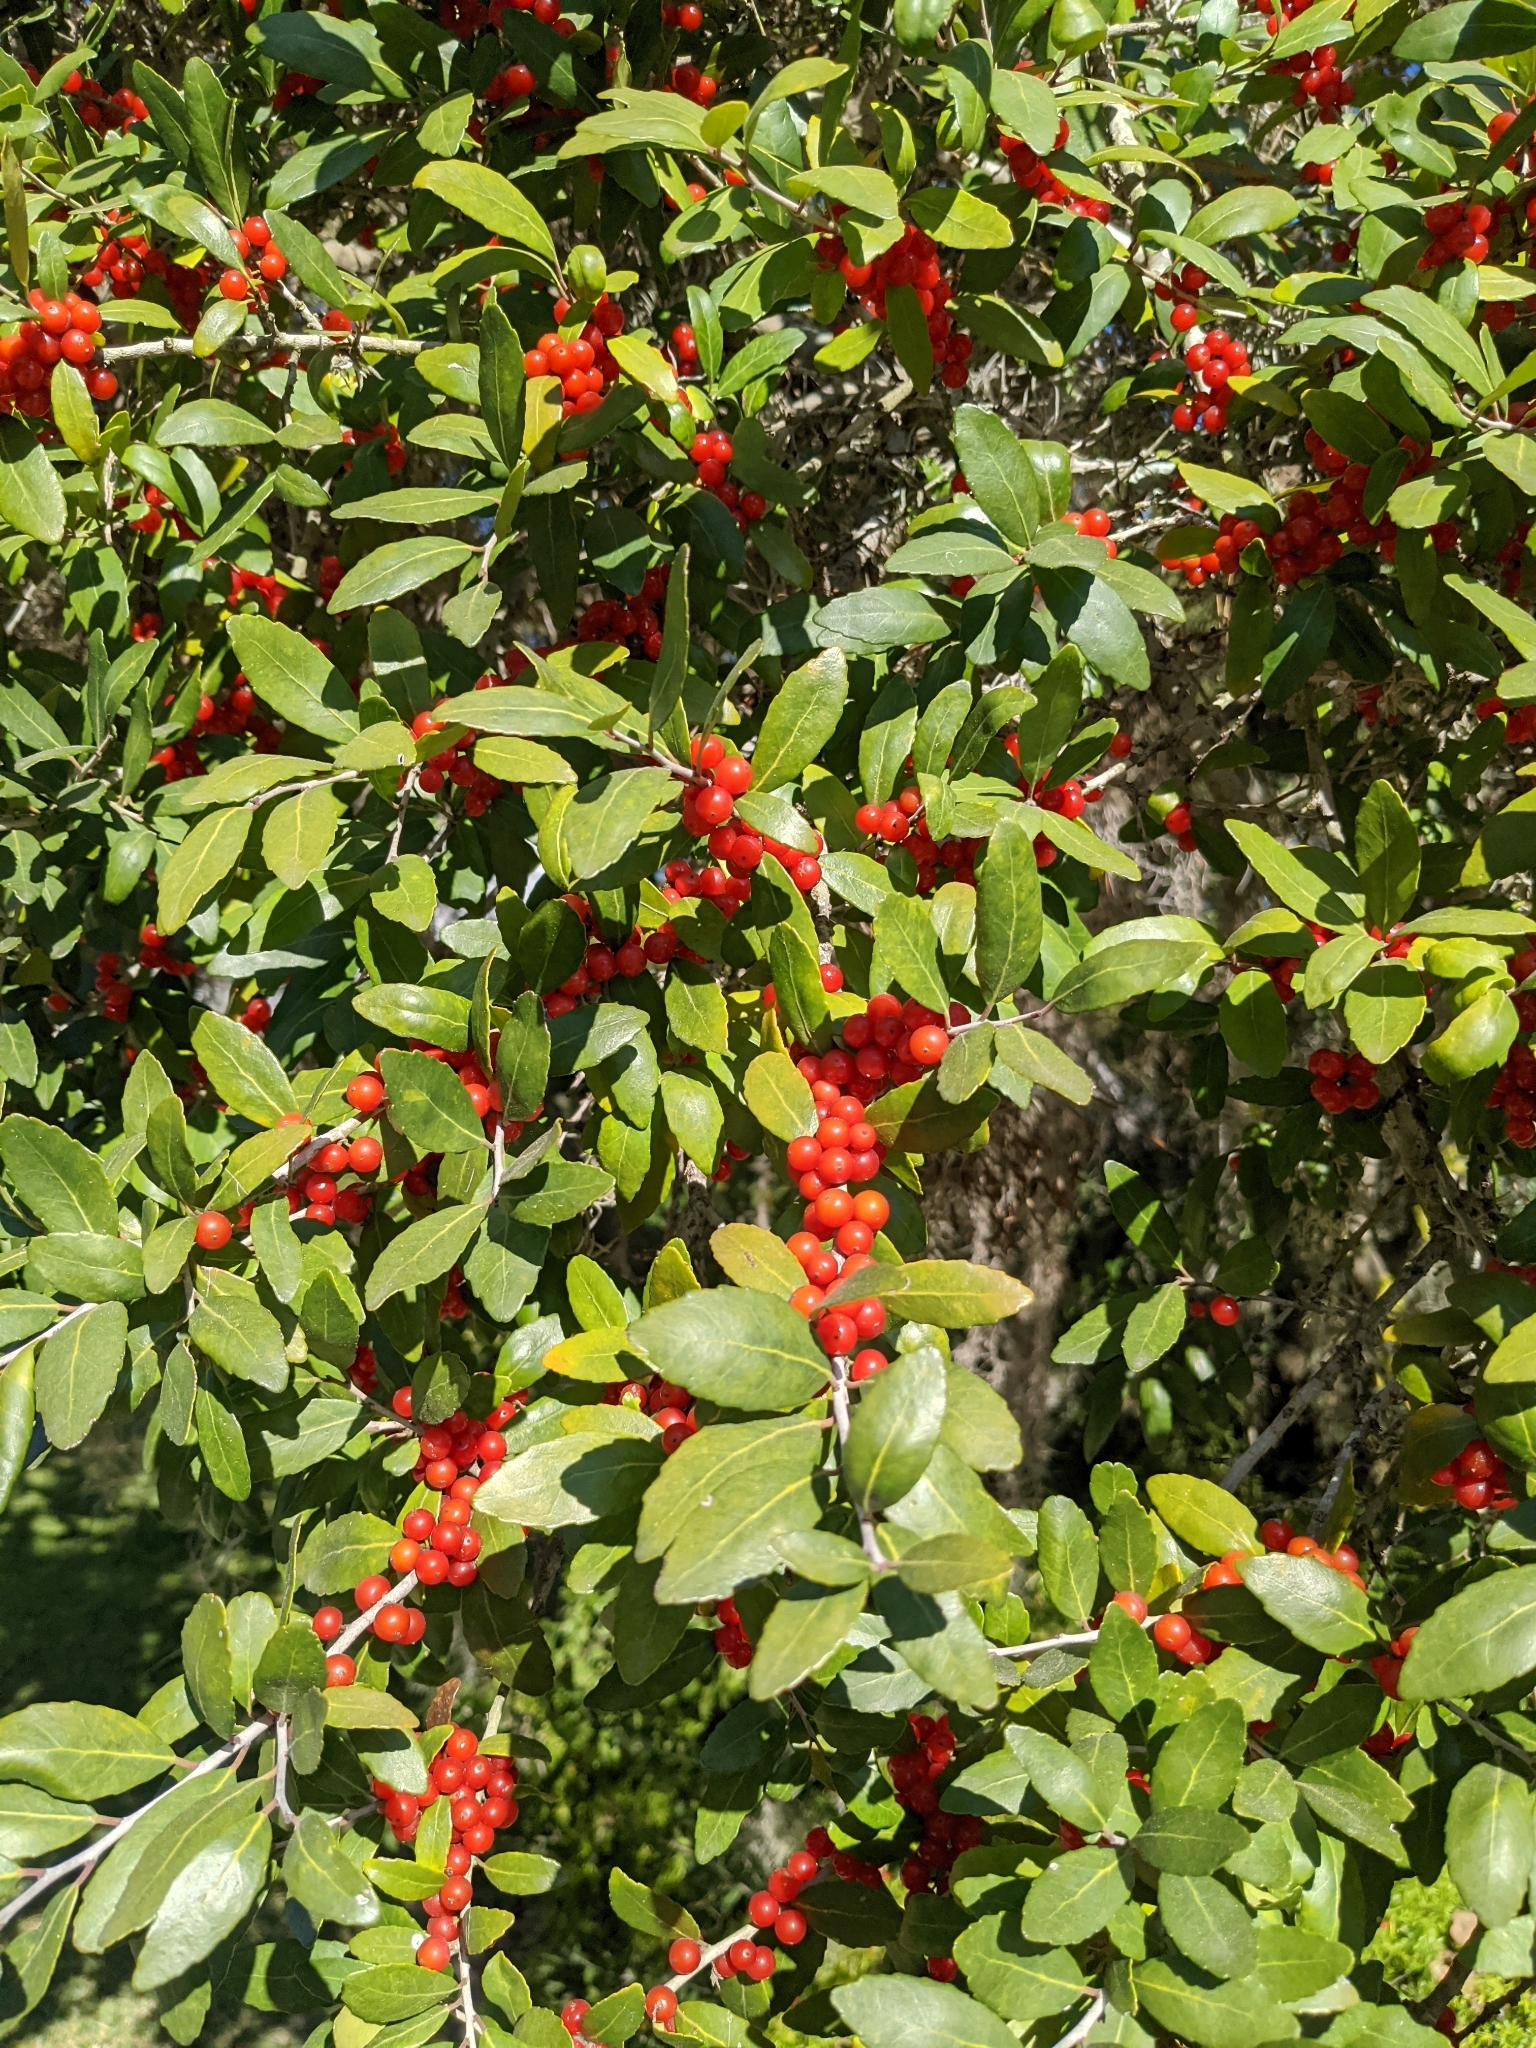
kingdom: Plantae
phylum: Tracheophyta
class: Magnoliopsida
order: Aquifoliales
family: Aquifoliaceae
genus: Ilex
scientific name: Ilex vomitoria
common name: Yaupon holly
